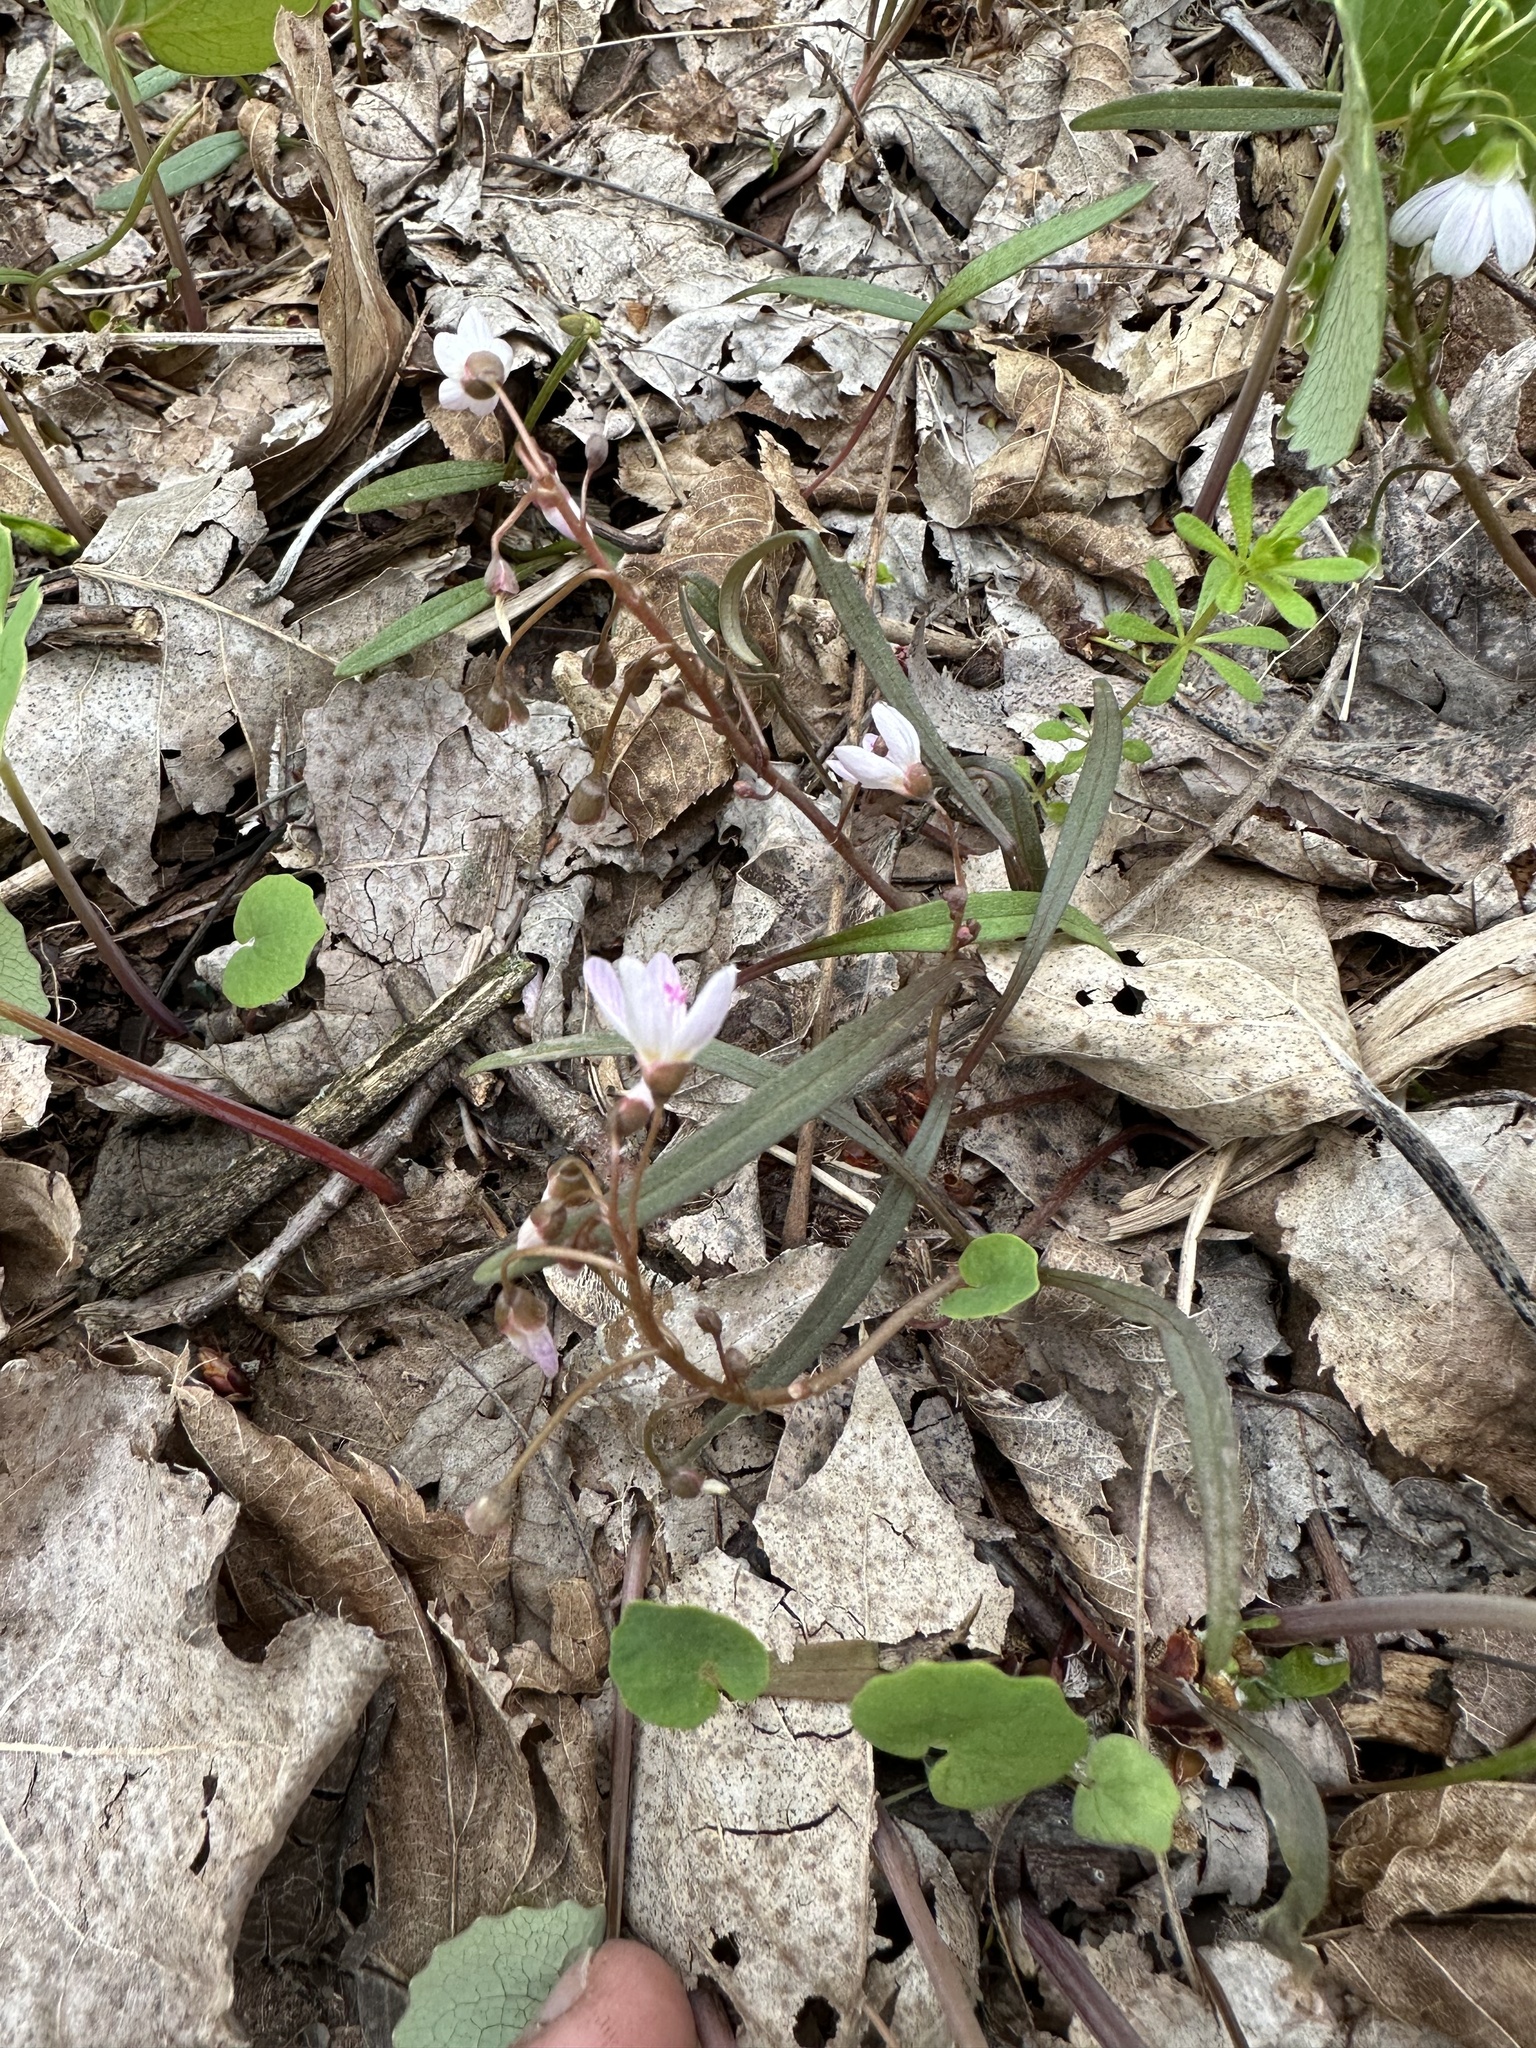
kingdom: Plantae
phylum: Tracheophyta
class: Magnoliopsida
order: Caryophyllales
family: Montiaceae
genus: Claytonia
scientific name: Claytonia virginica
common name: Virginia springbeauty
